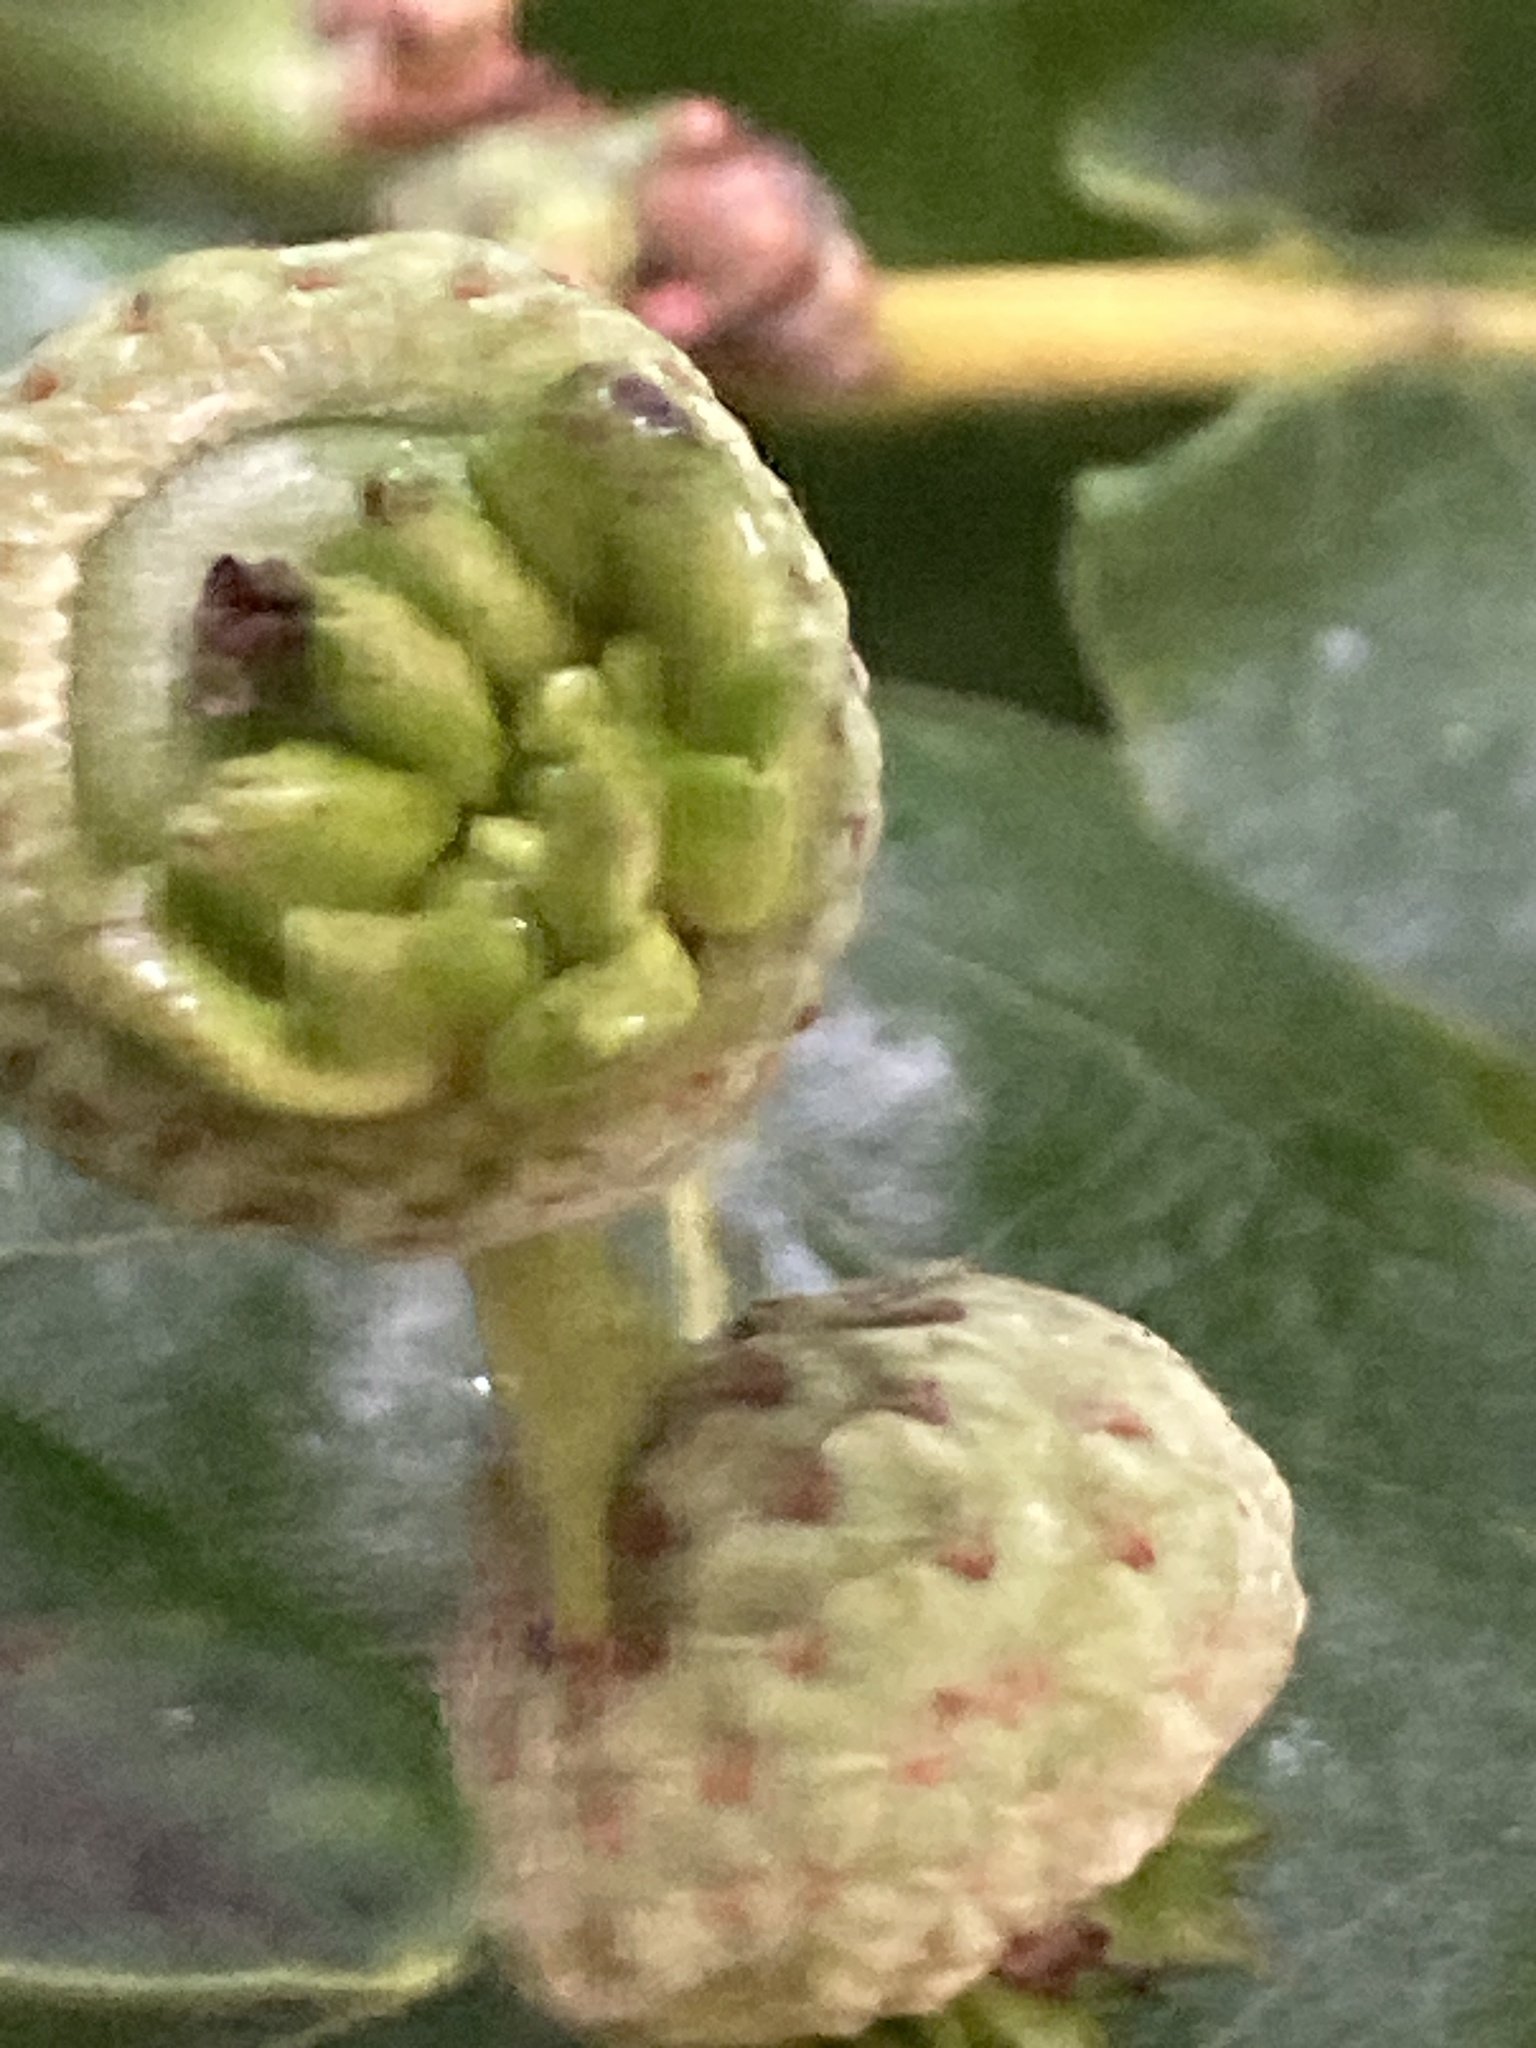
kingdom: Animalia
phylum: Arthropoda
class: Insecta
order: Hymenoptera
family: Cynipidae
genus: Andricus
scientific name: Andricus quercuscalicis
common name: Knopper gall
